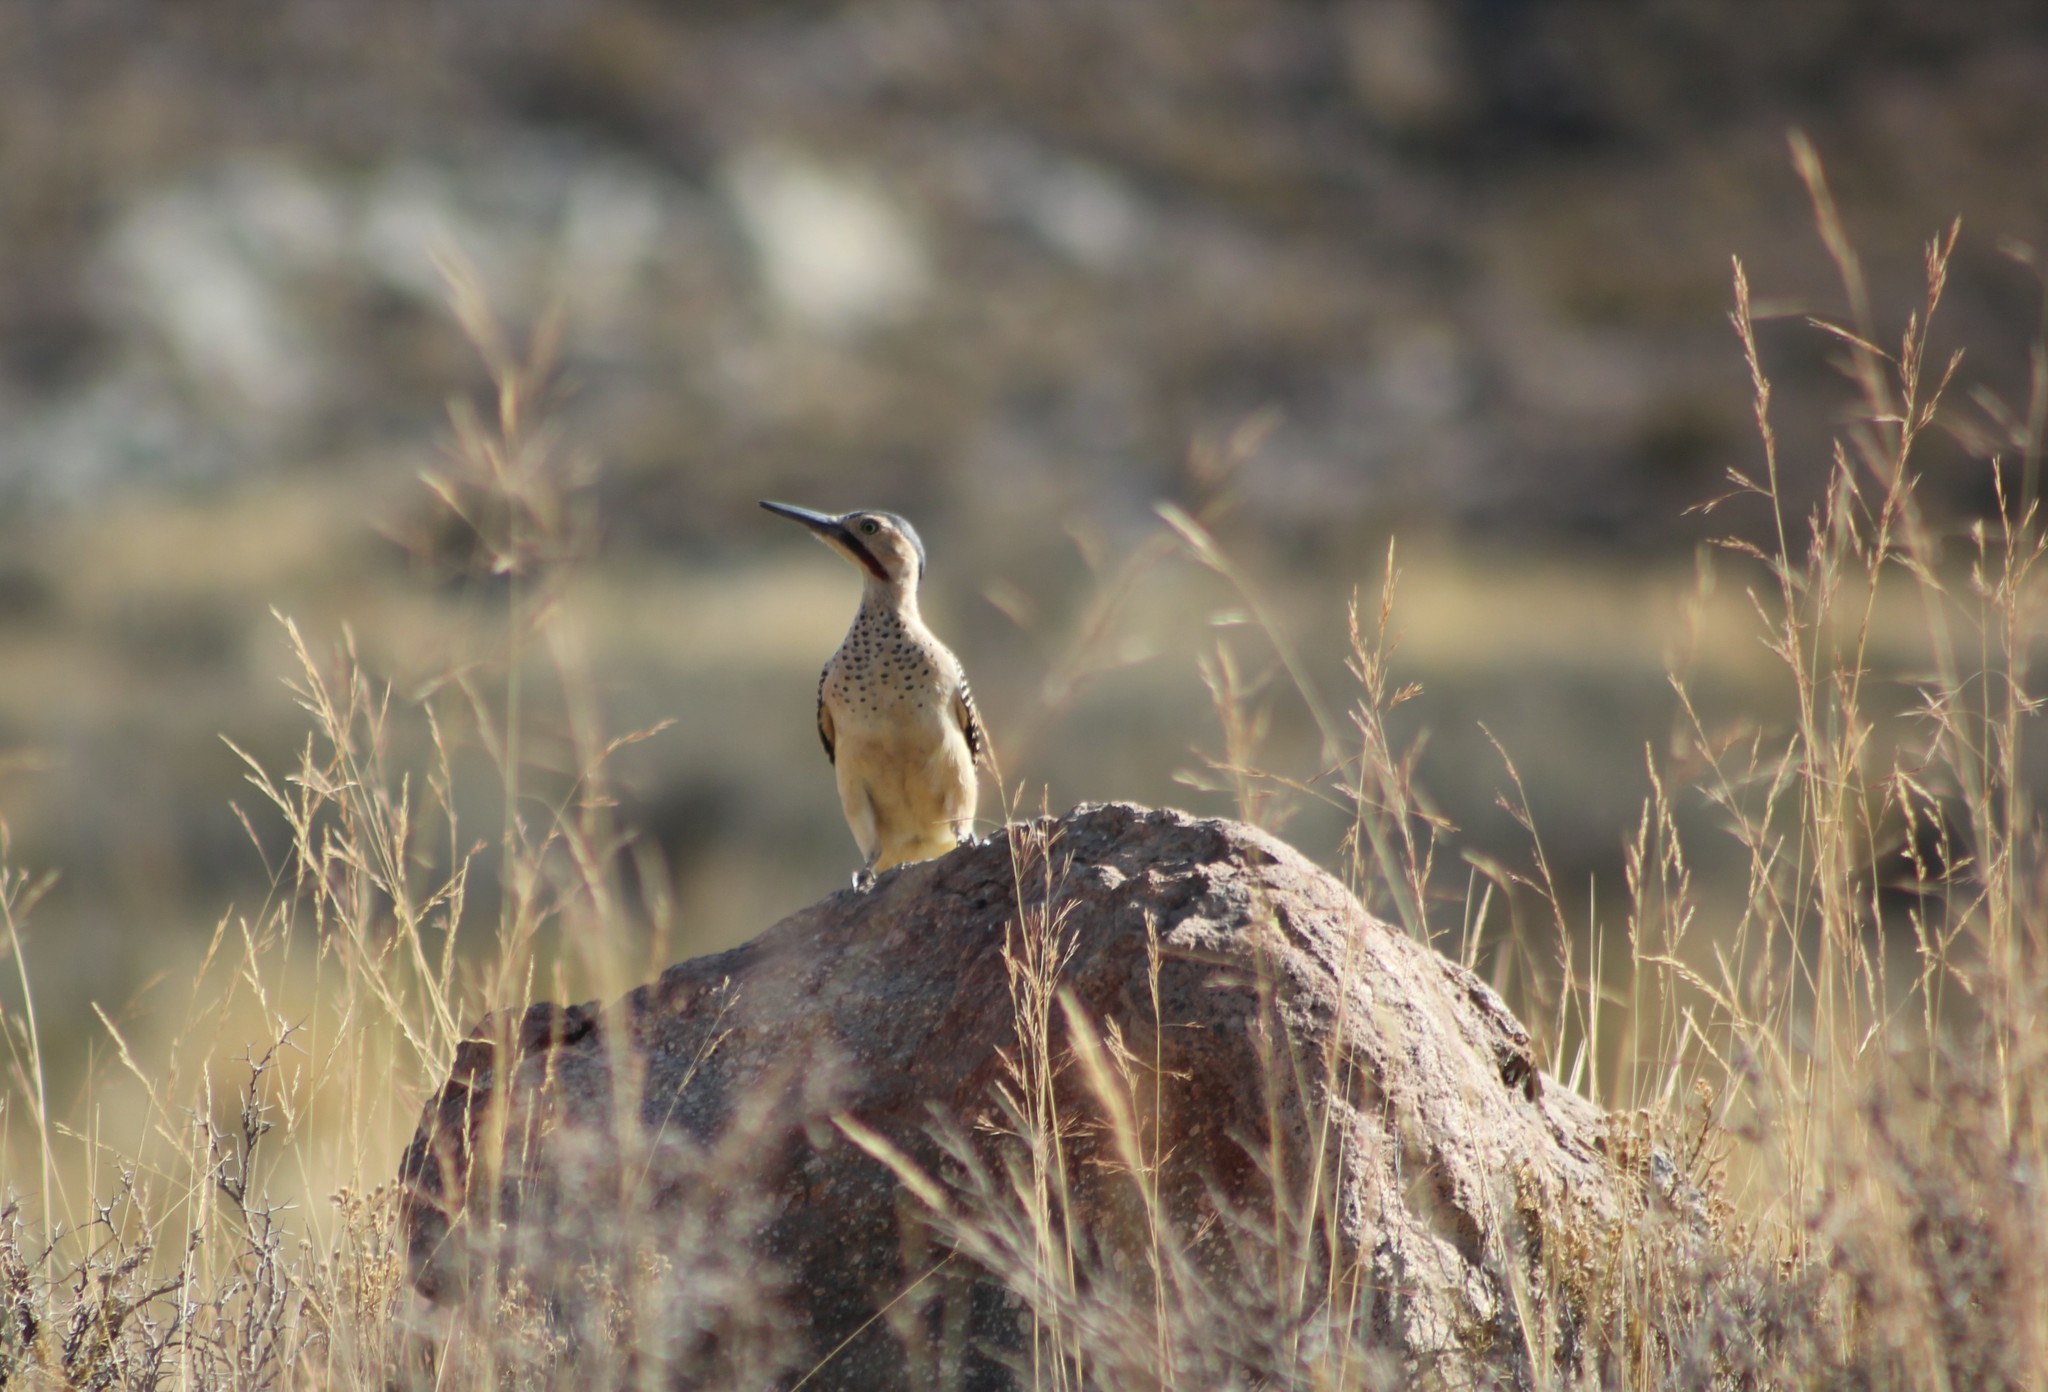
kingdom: Animalia
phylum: Chordata
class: Aves
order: Piciformes
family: Picidae
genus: Colaptes
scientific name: Colaptes rupicola
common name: Andean flicker
